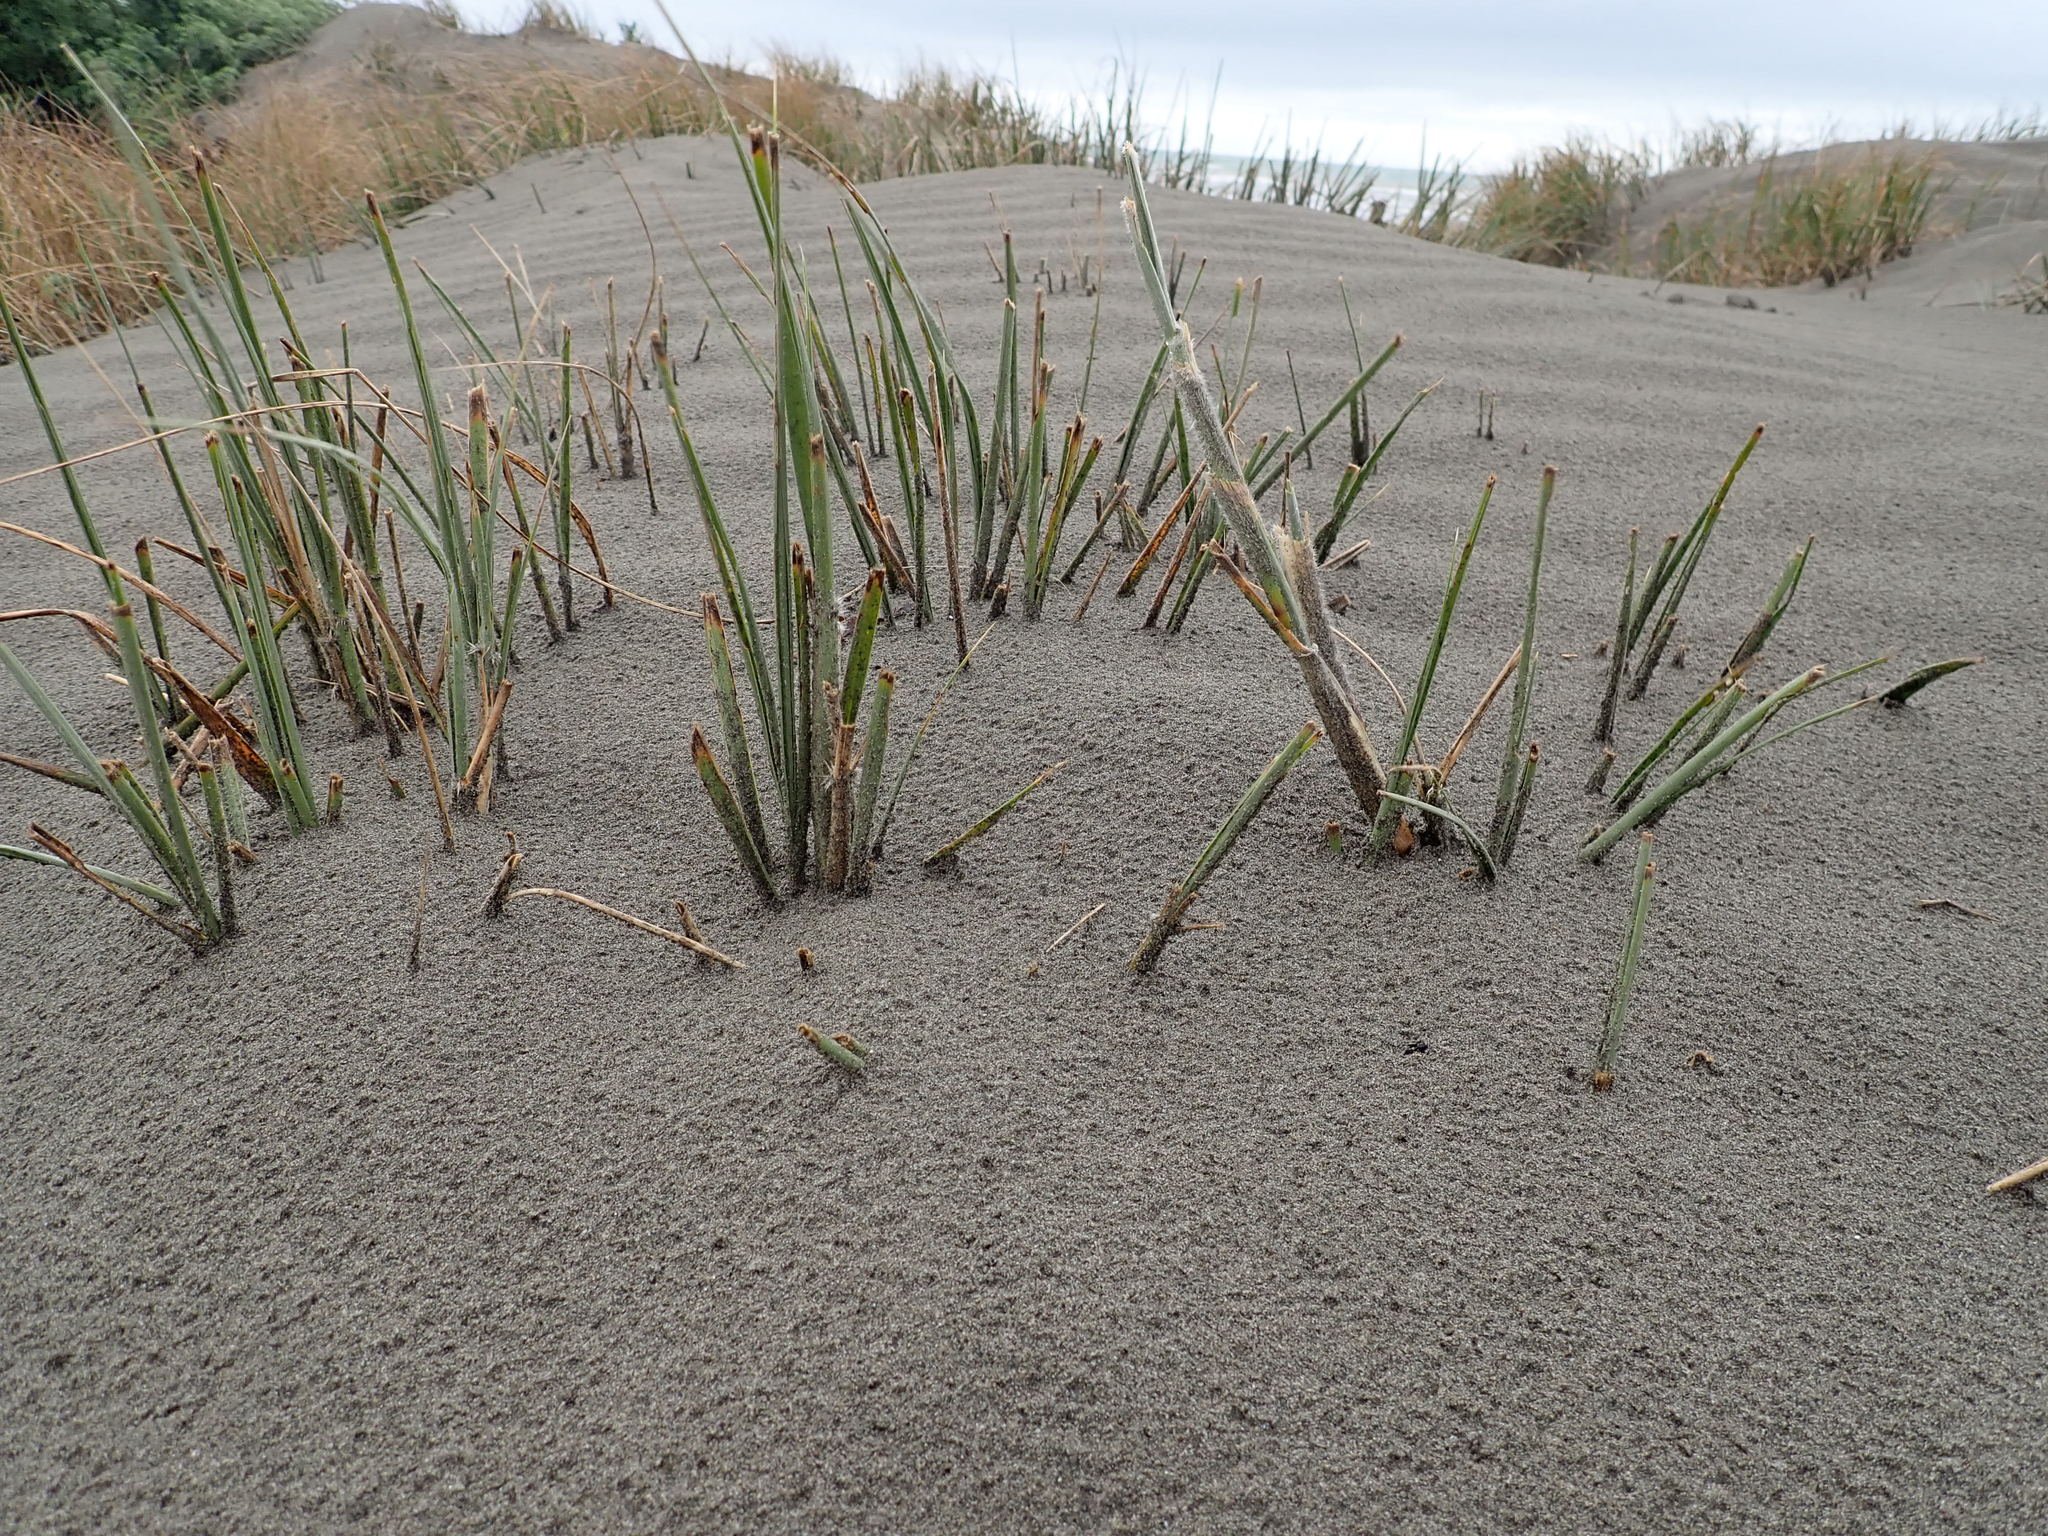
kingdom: Plantae
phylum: Tracheophyta
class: Liliopsida
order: Poales
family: Poaceae
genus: Spinifex
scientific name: Spinifex sericeus
